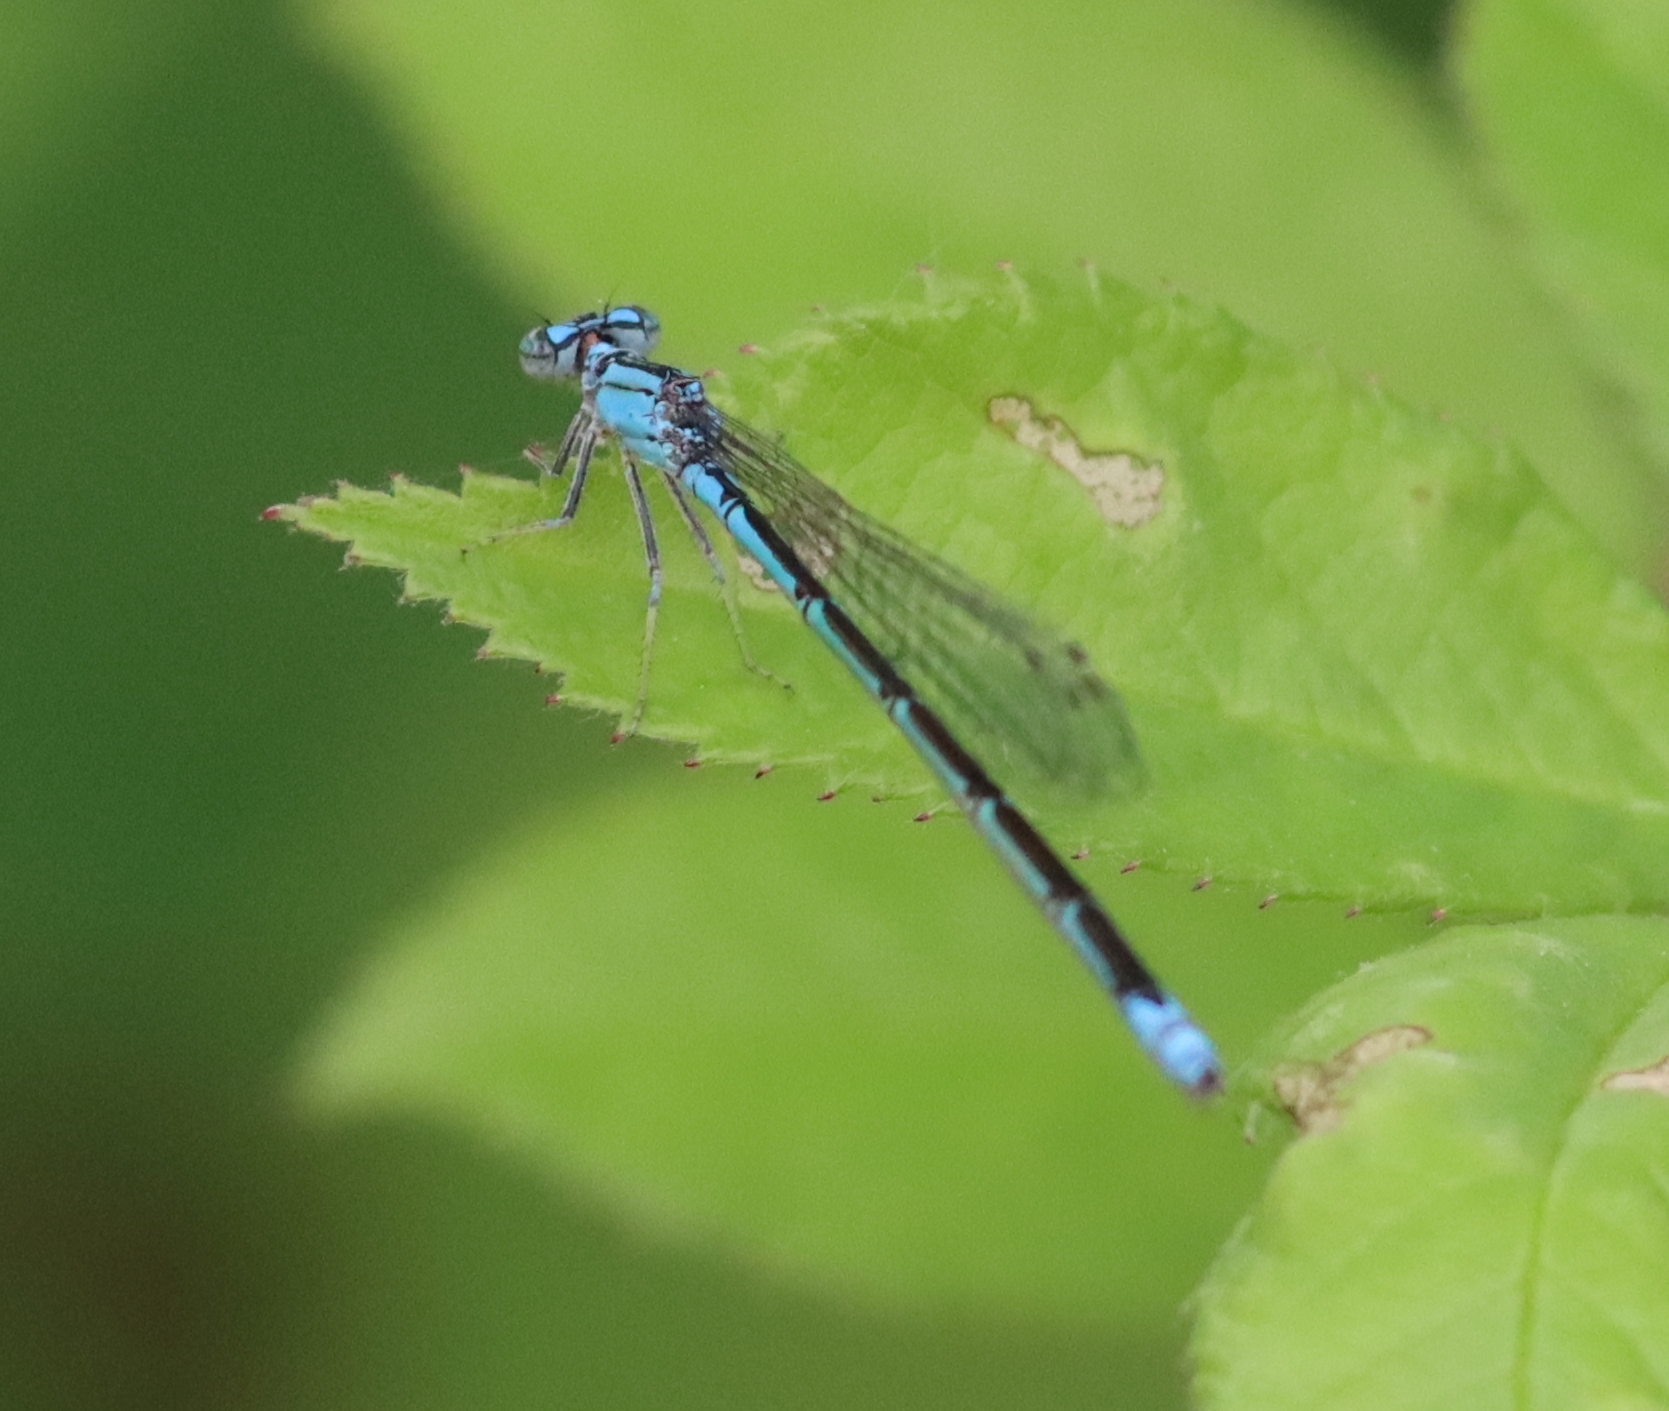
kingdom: Animalia
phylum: Arthropoda
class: Insecta
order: Odonata
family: Coenagrionidae
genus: Enallagma
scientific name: Enallagma traviatum
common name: Slender bluet
